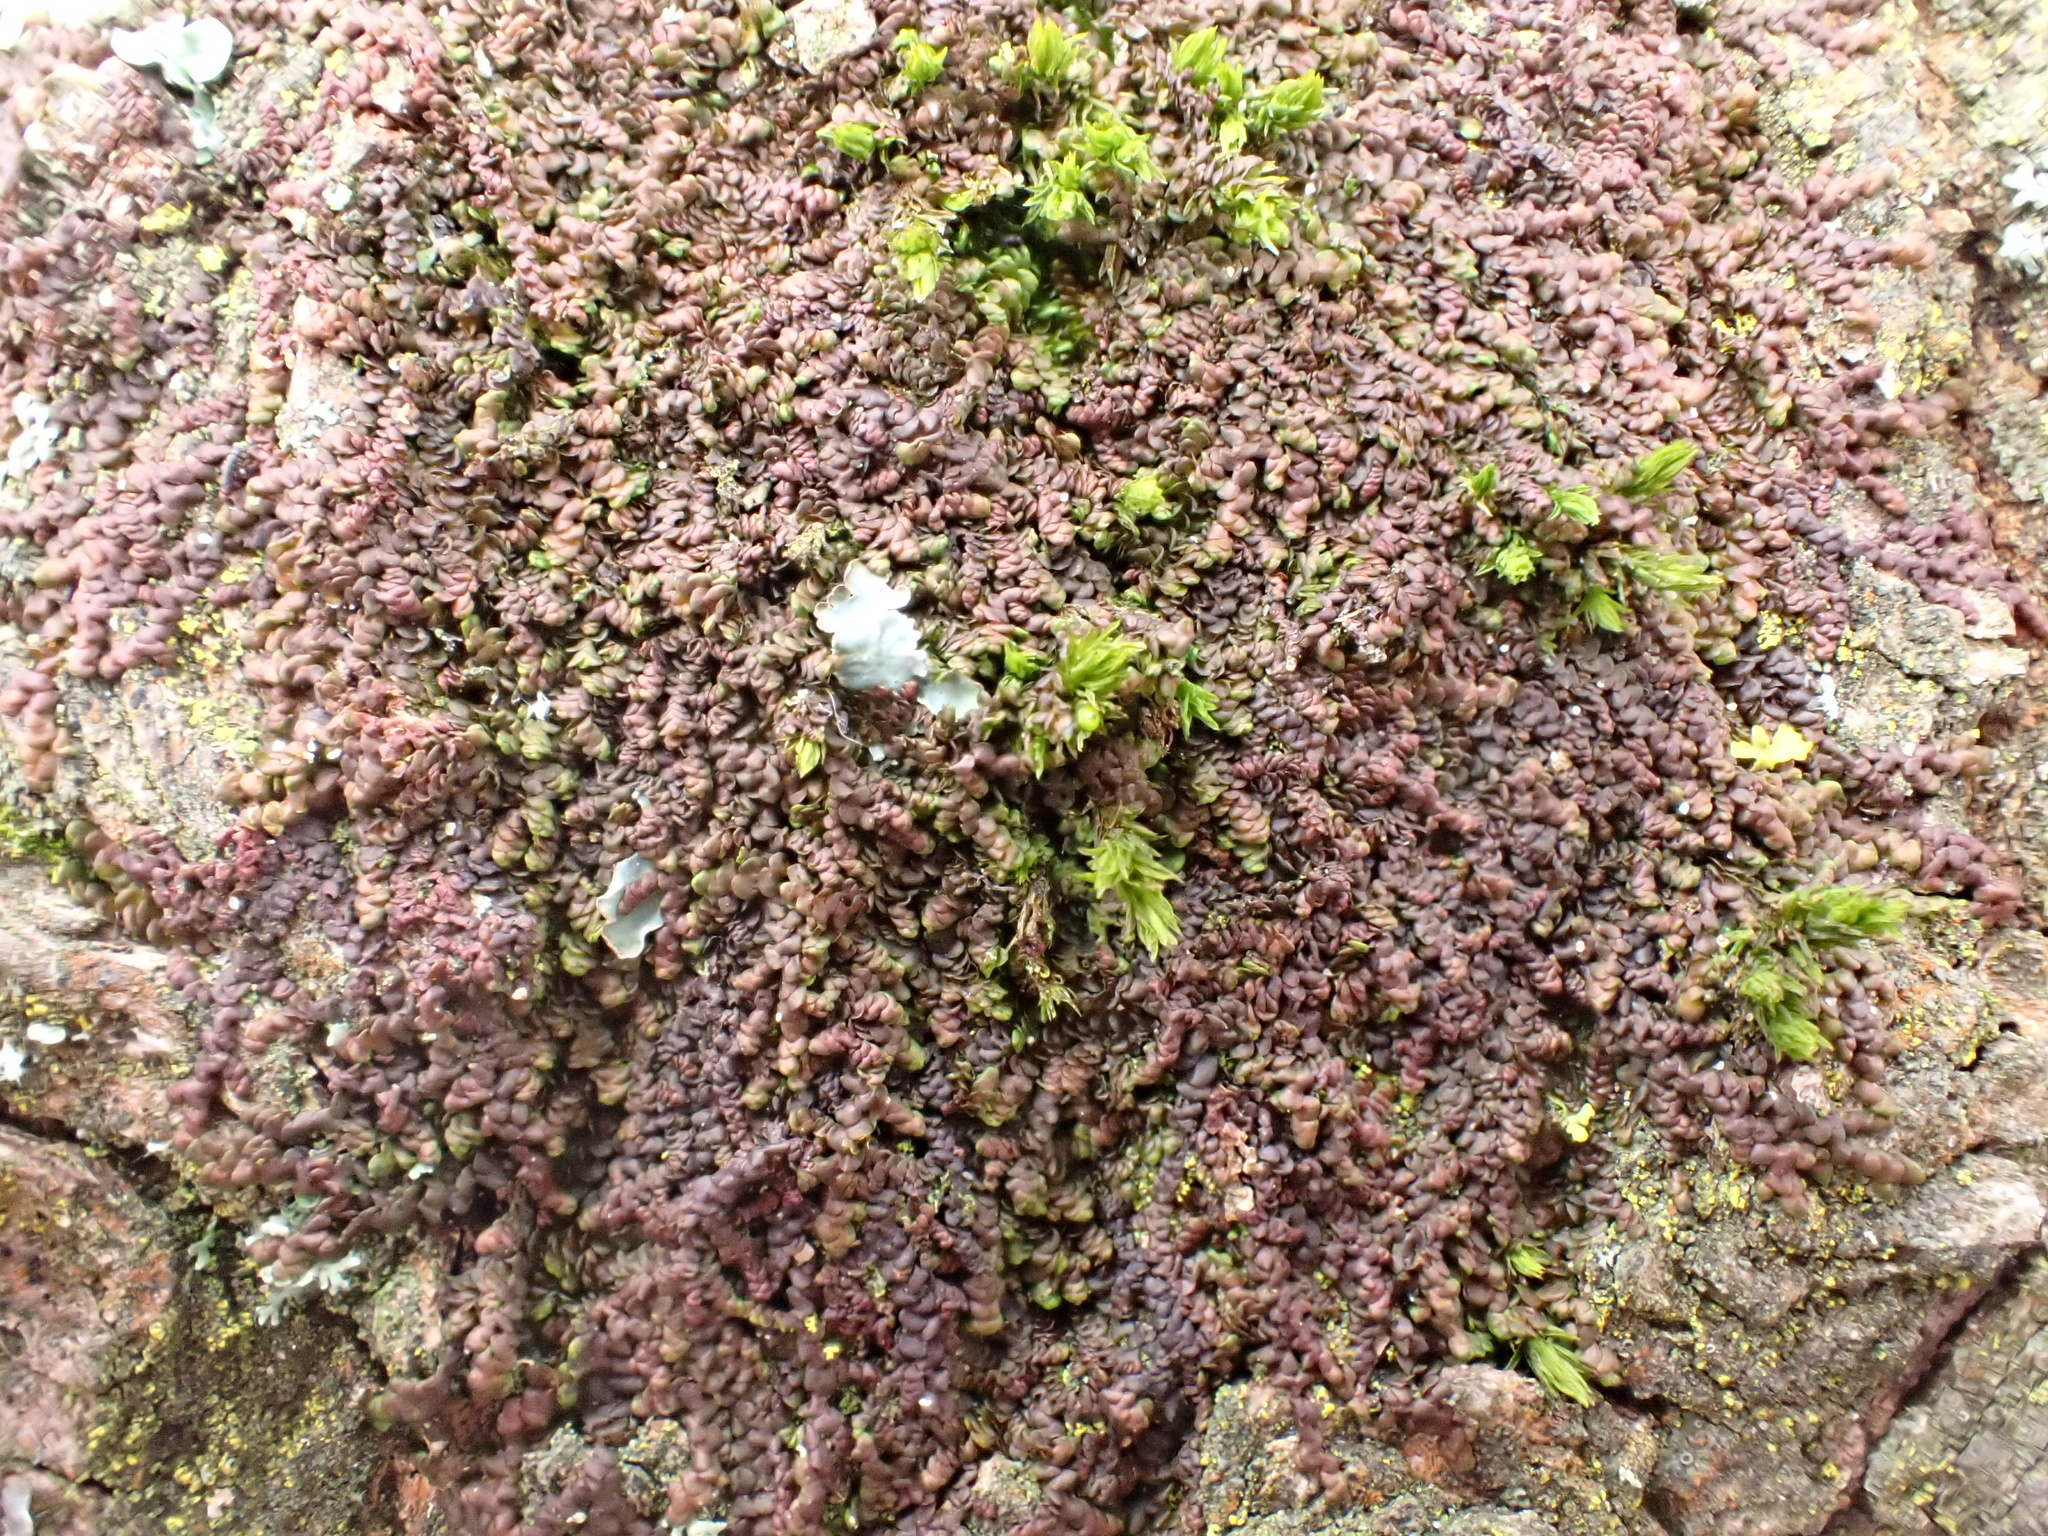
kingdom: Plantae
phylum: Marchantiophyta
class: Jungermanniopsida
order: Porellales
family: Frullaniaceae
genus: Frullania
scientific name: Frullania dilatata
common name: Dilated scalewort
